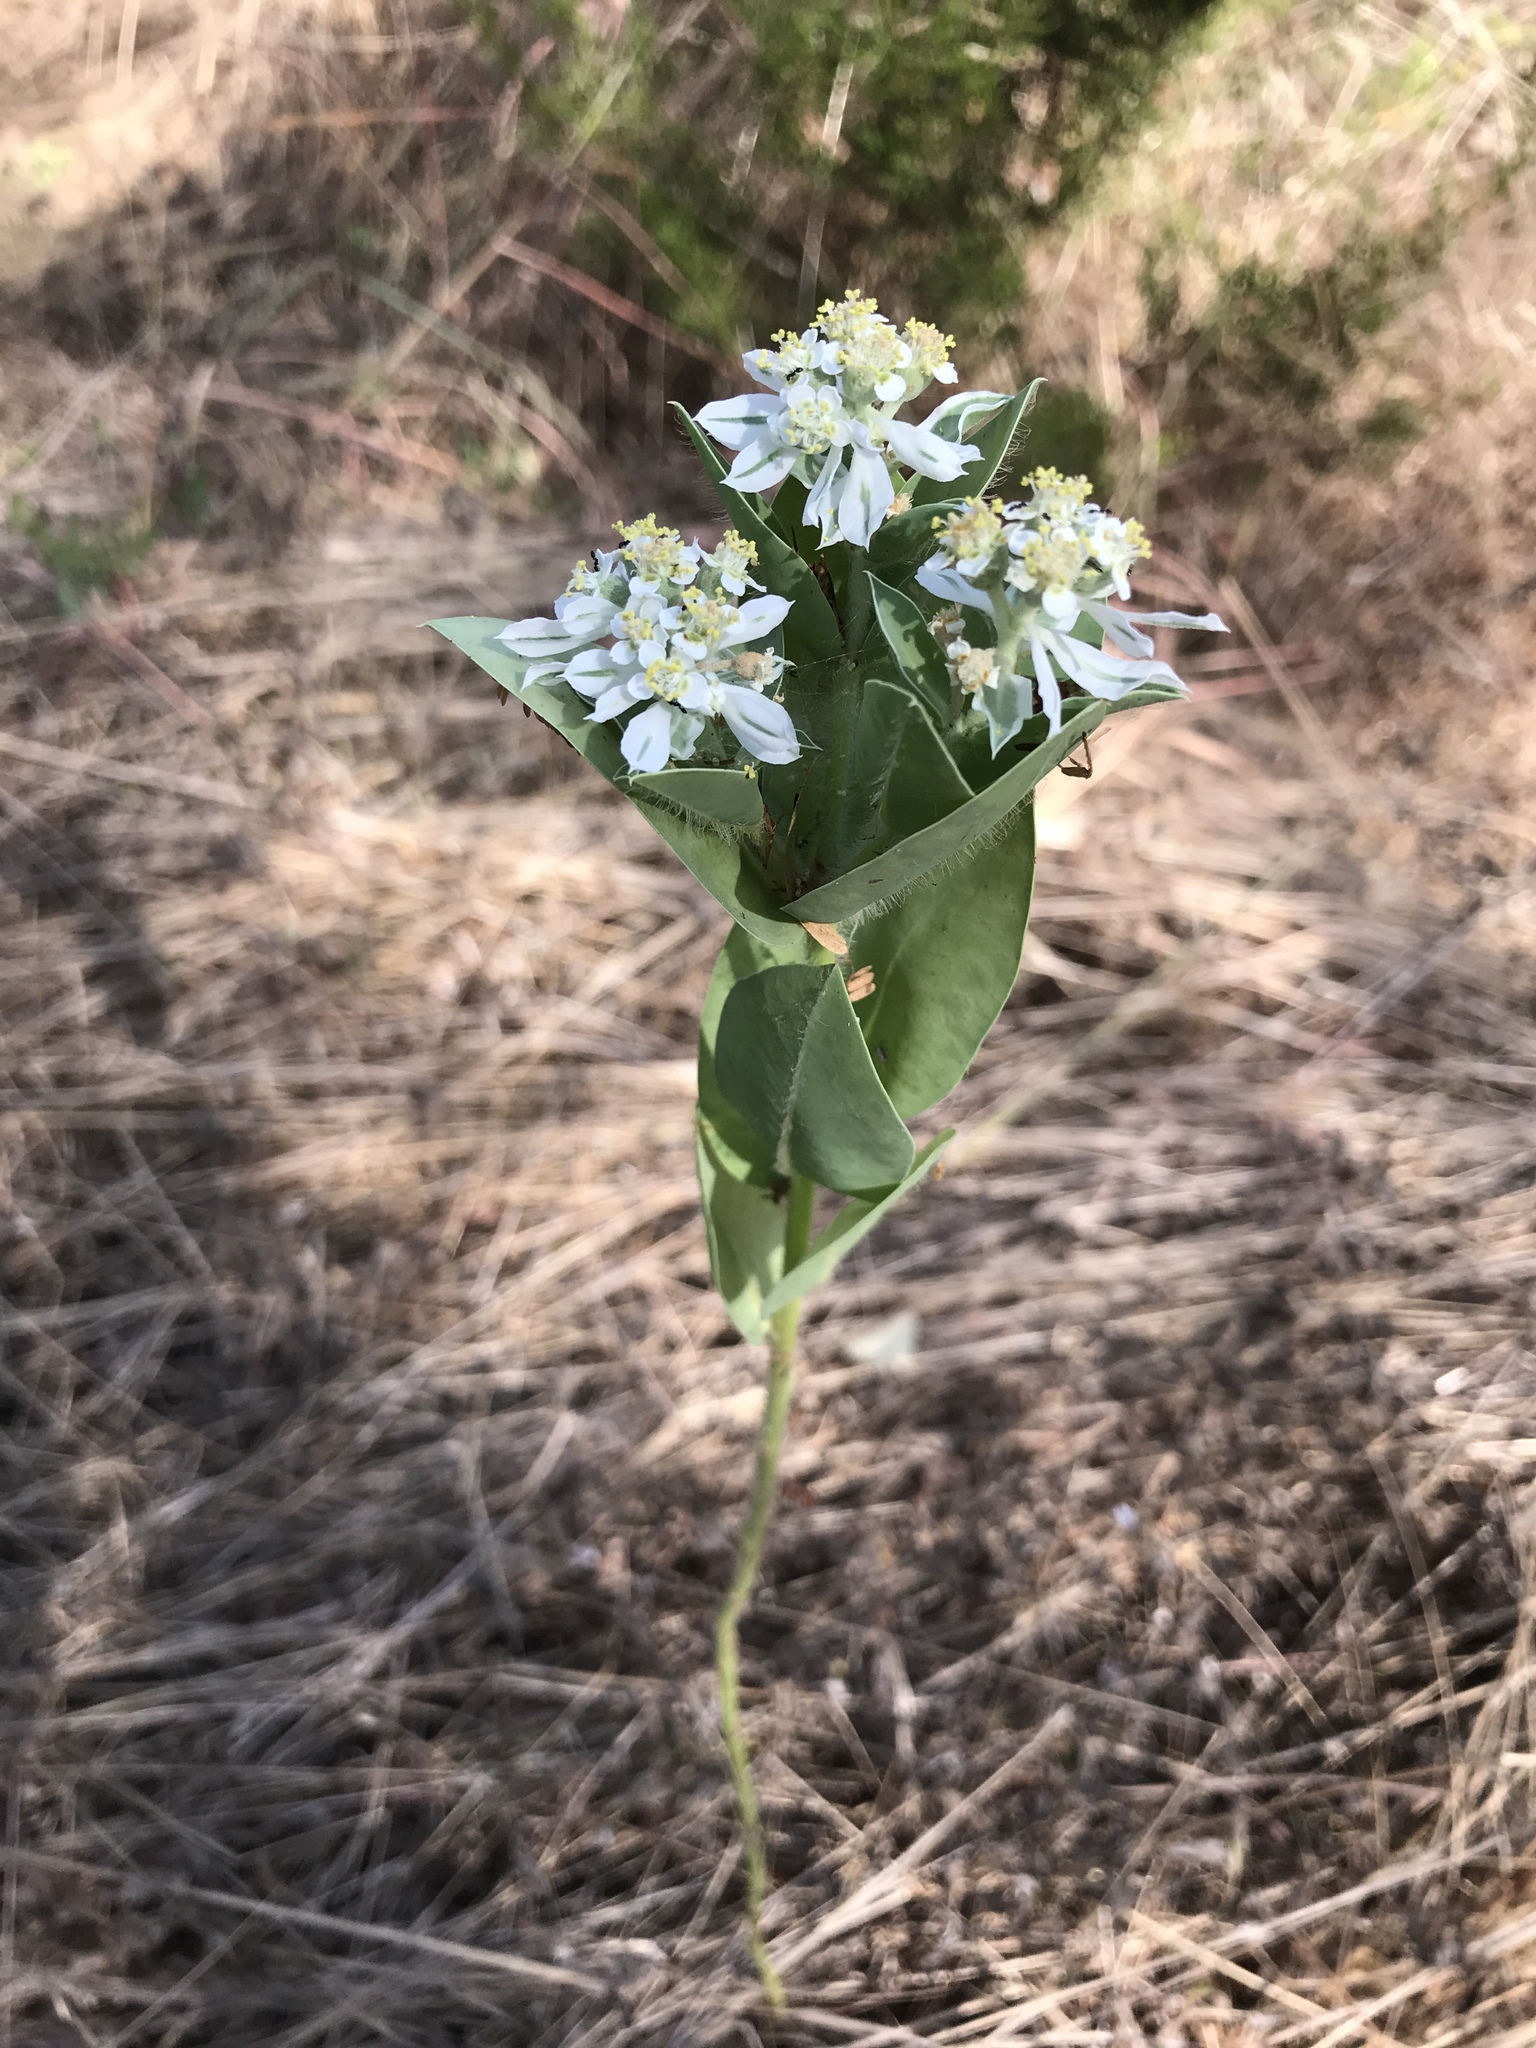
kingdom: Plantae
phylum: Tracheophyta
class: Magnoliopsida
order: Malpighiales
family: Euphorbiaceae
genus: Euphorbia
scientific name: Euphorbia marginata
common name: Ghostweed
